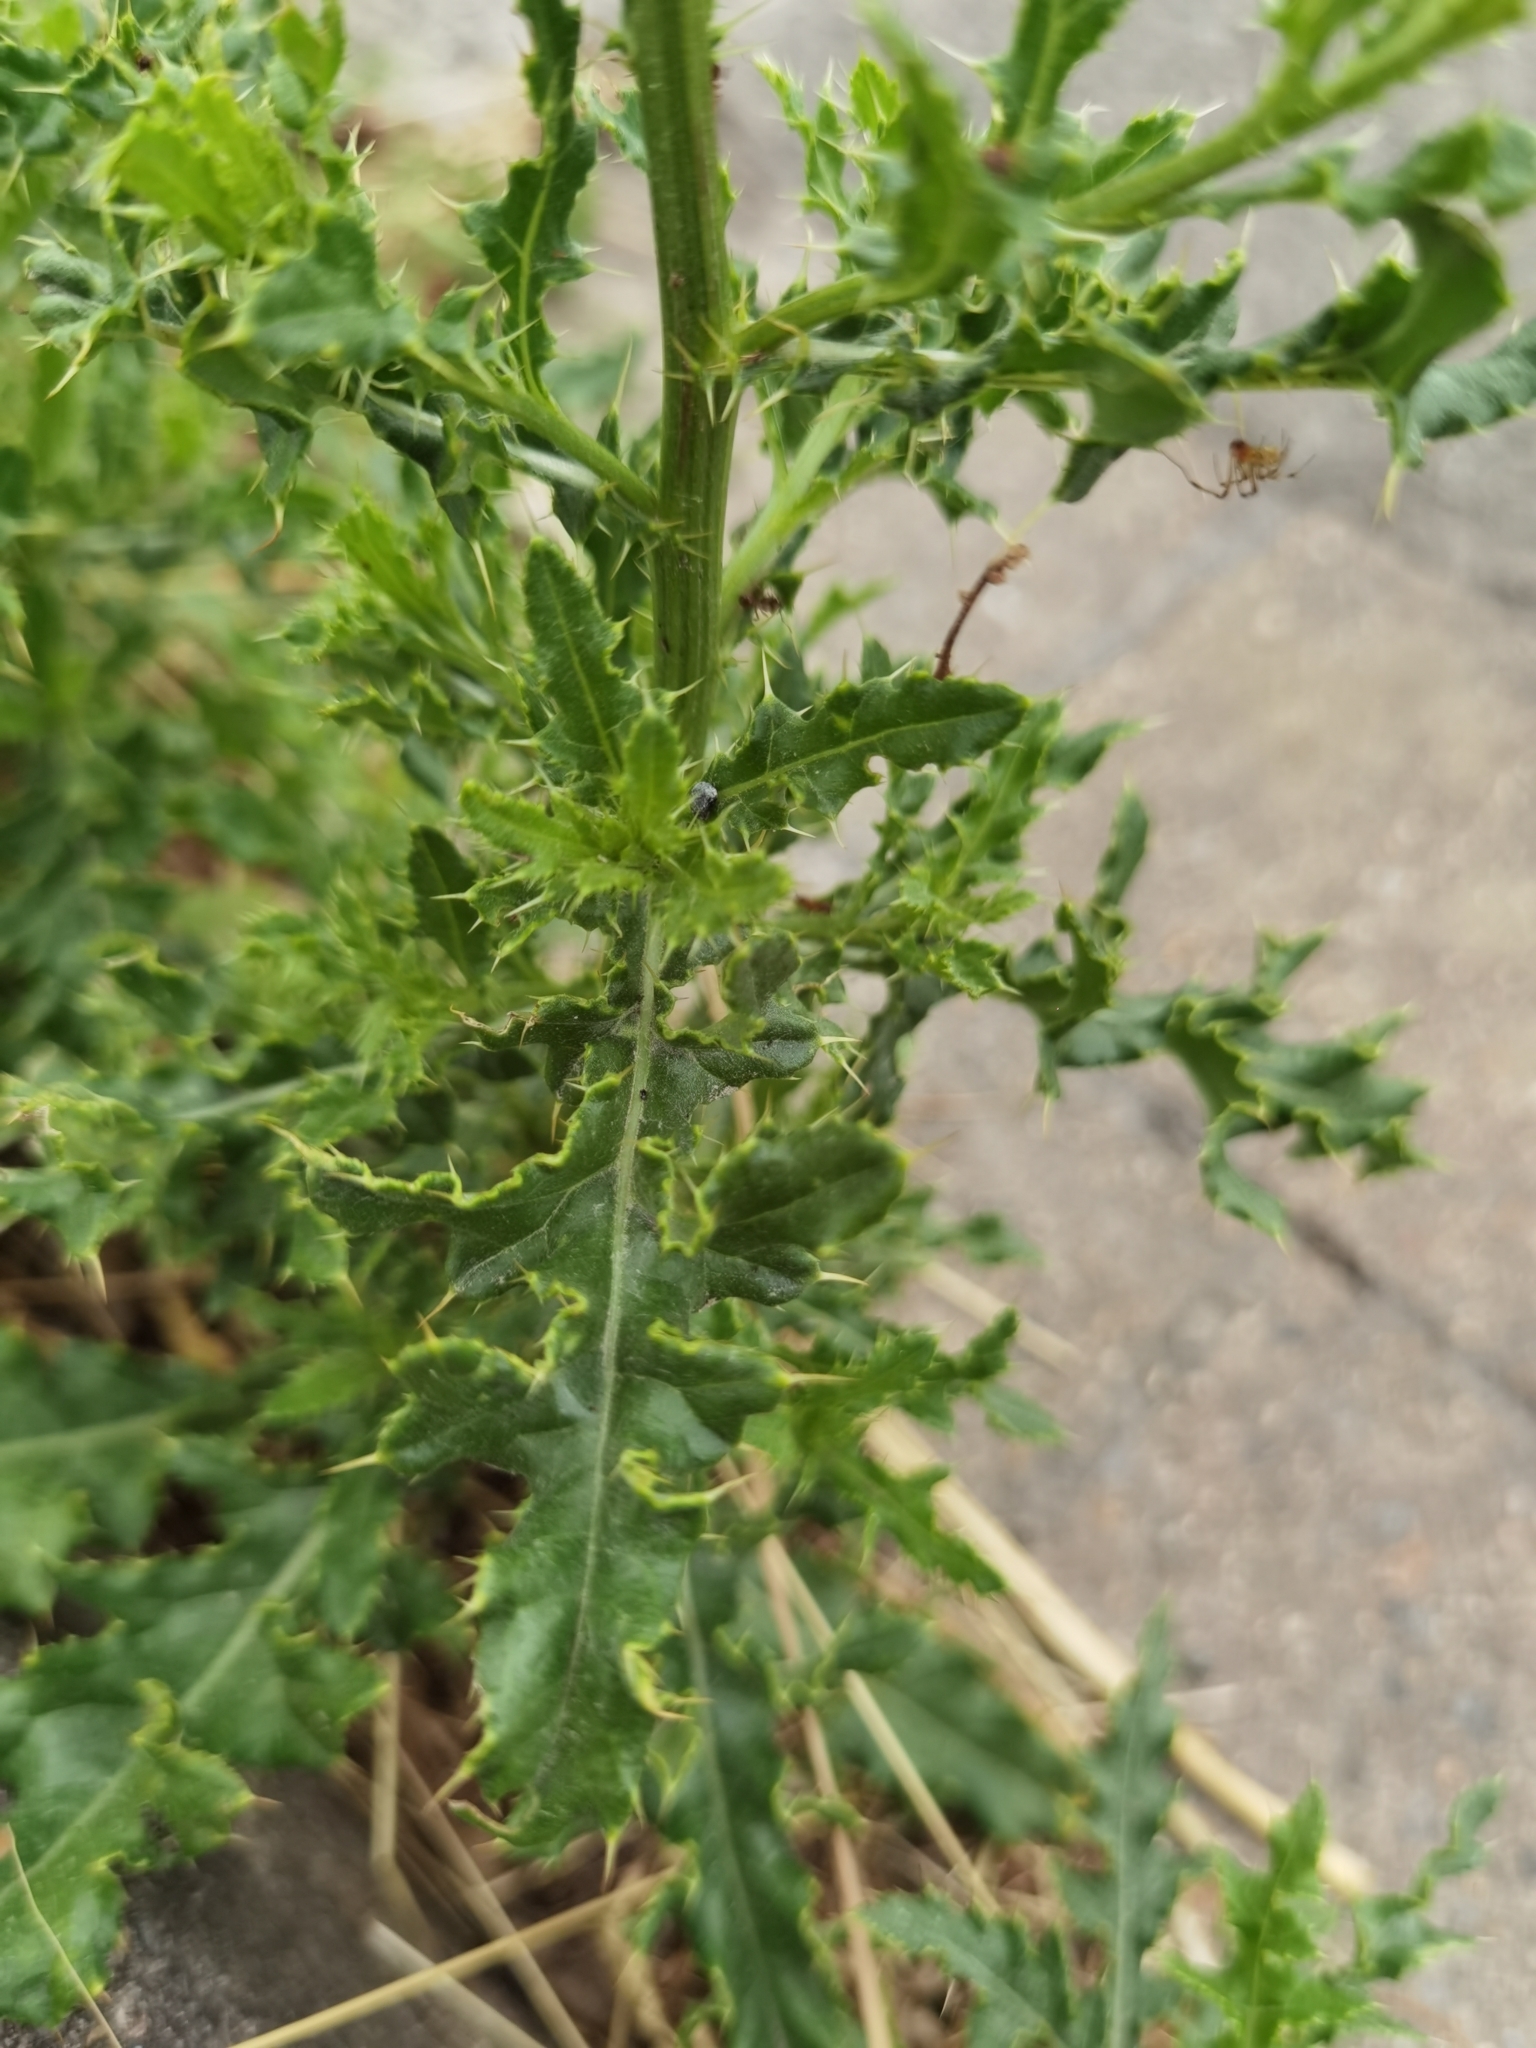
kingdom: Plantae
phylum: Tracheophyta
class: Magnoliopsida
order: Asterales
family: Asteraceae
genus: Cirsium
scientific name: Cirsium arvense
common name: Creeping thistle
